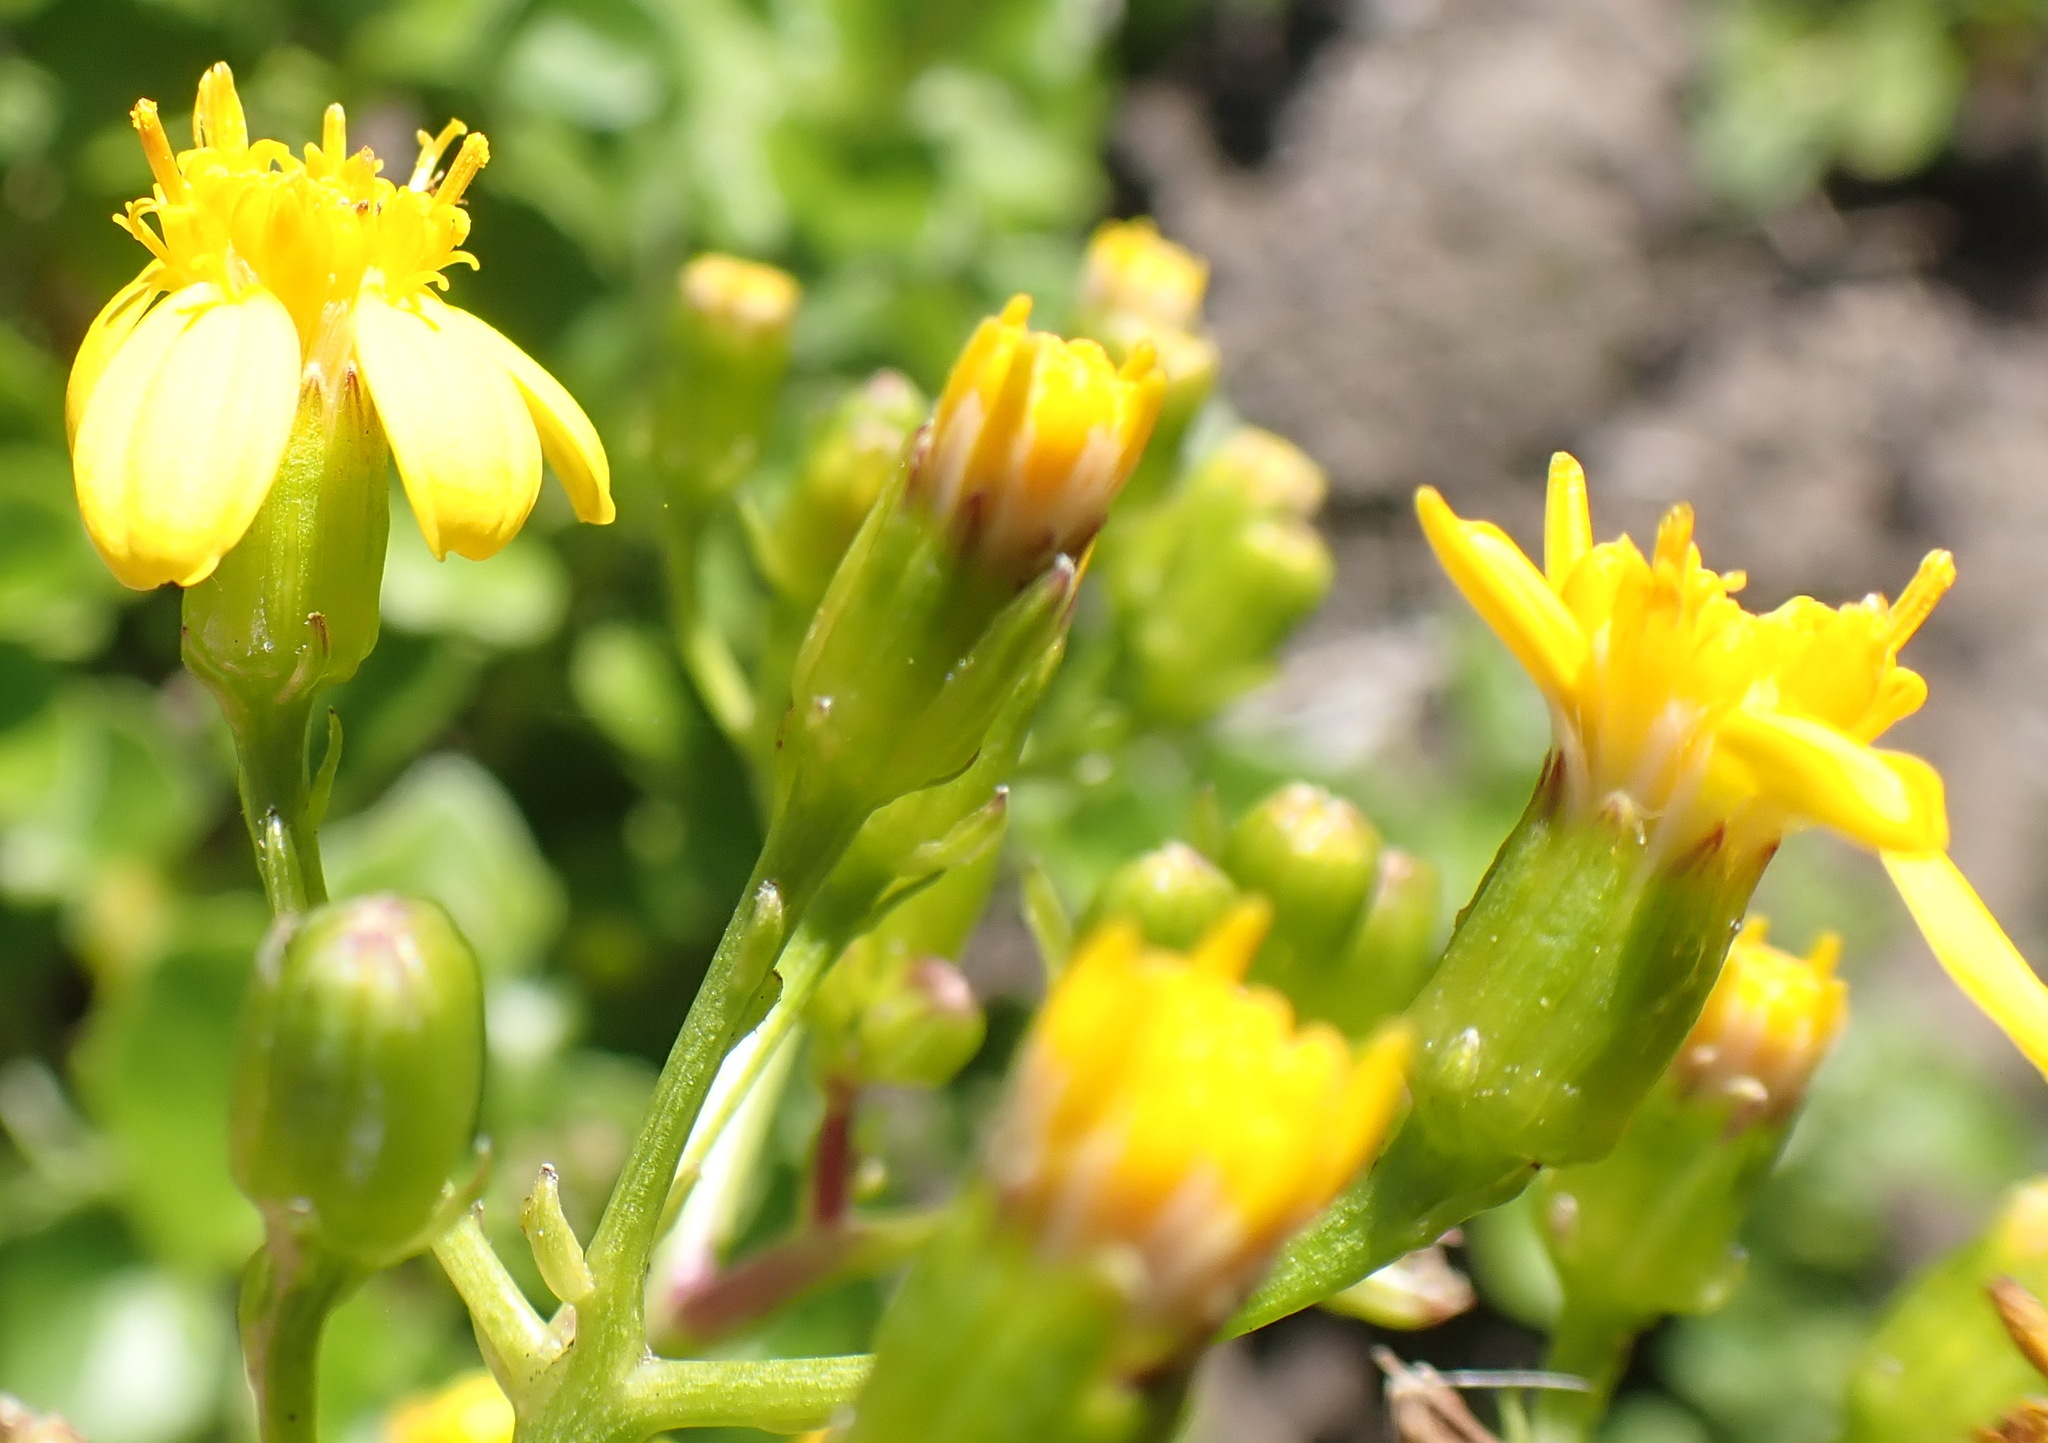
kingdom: Plantae
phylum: Tracheophyta
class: Magnoliopsida
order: Asterales
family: Asteraceae
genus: Senecio
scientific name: Senecio angulatus
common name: Climbing groundsel
